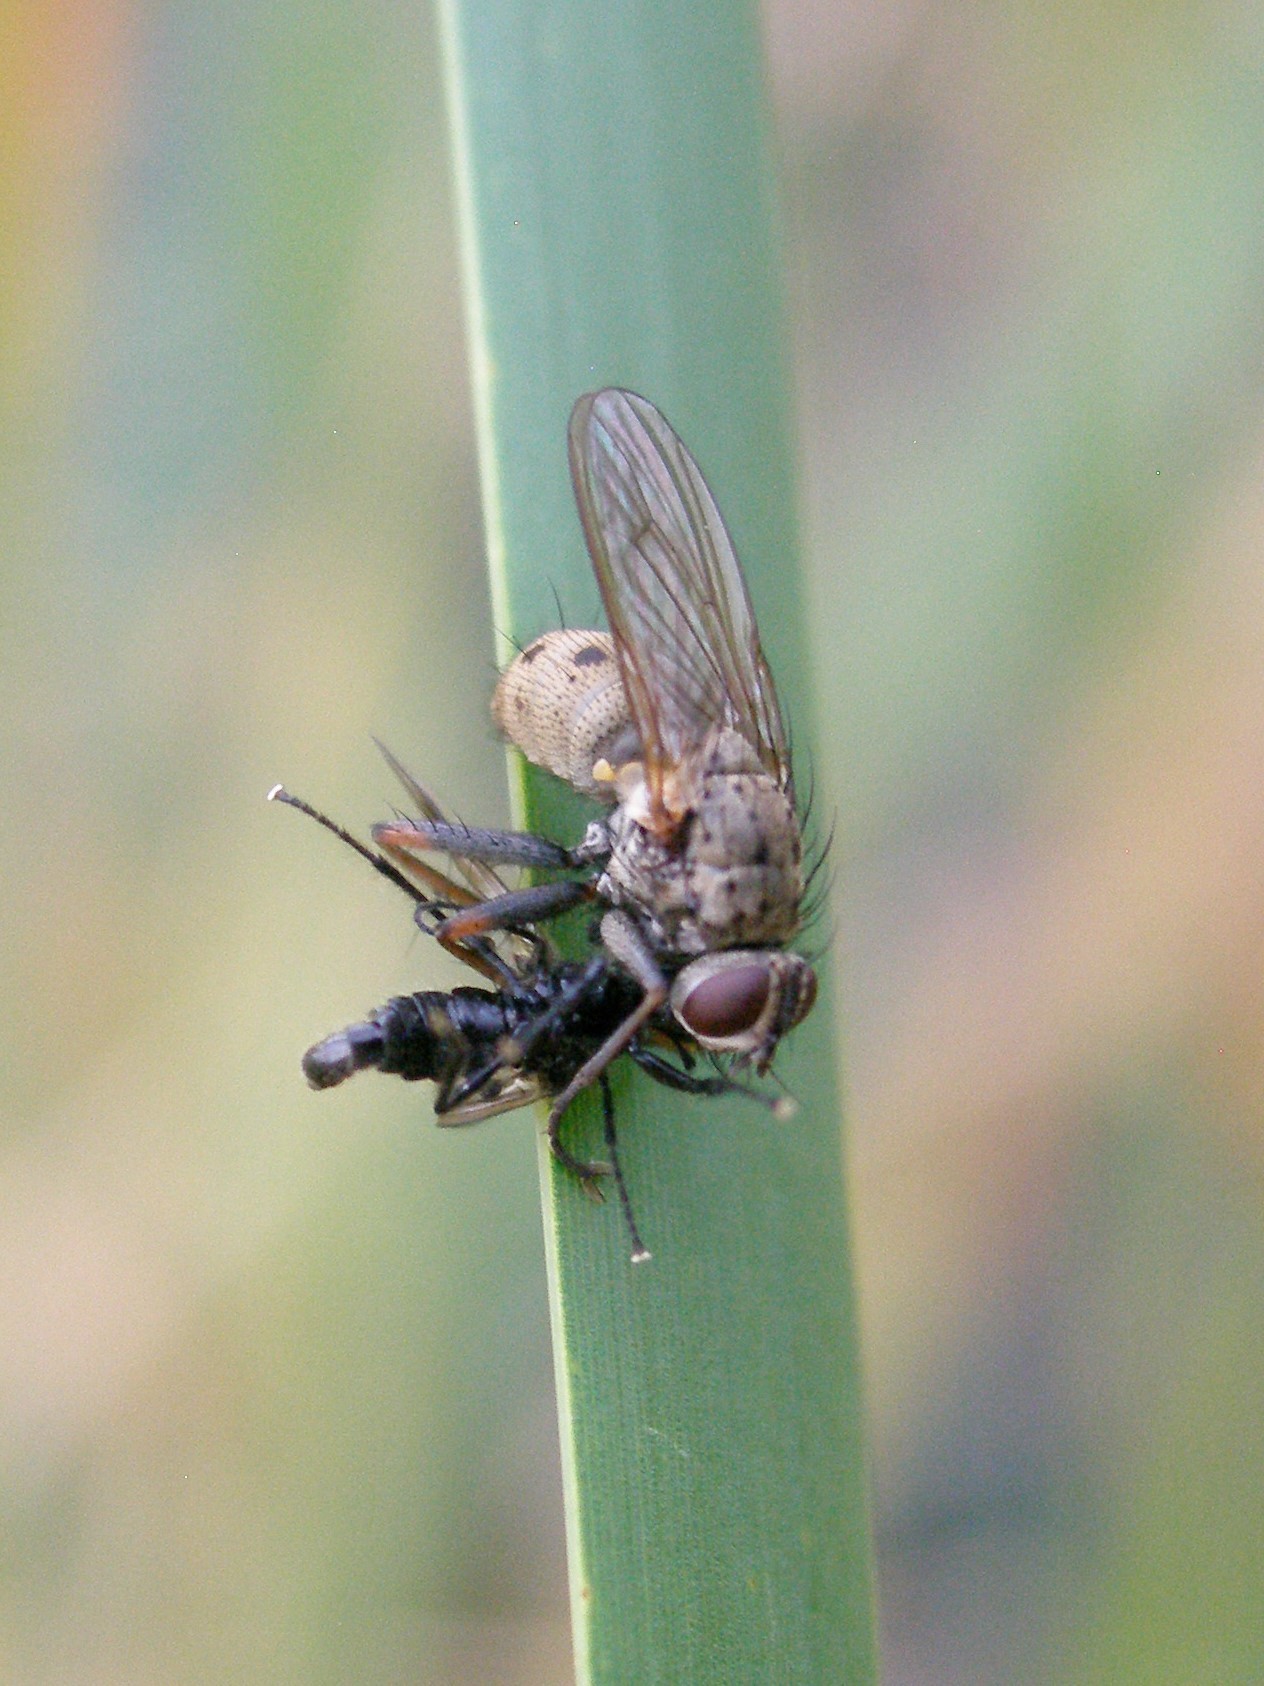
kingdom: Animalia
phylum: Arthropoda
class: Insecta
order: Diptera
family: Muscidae
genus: Coenosia
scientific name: Coenosia tigrina
